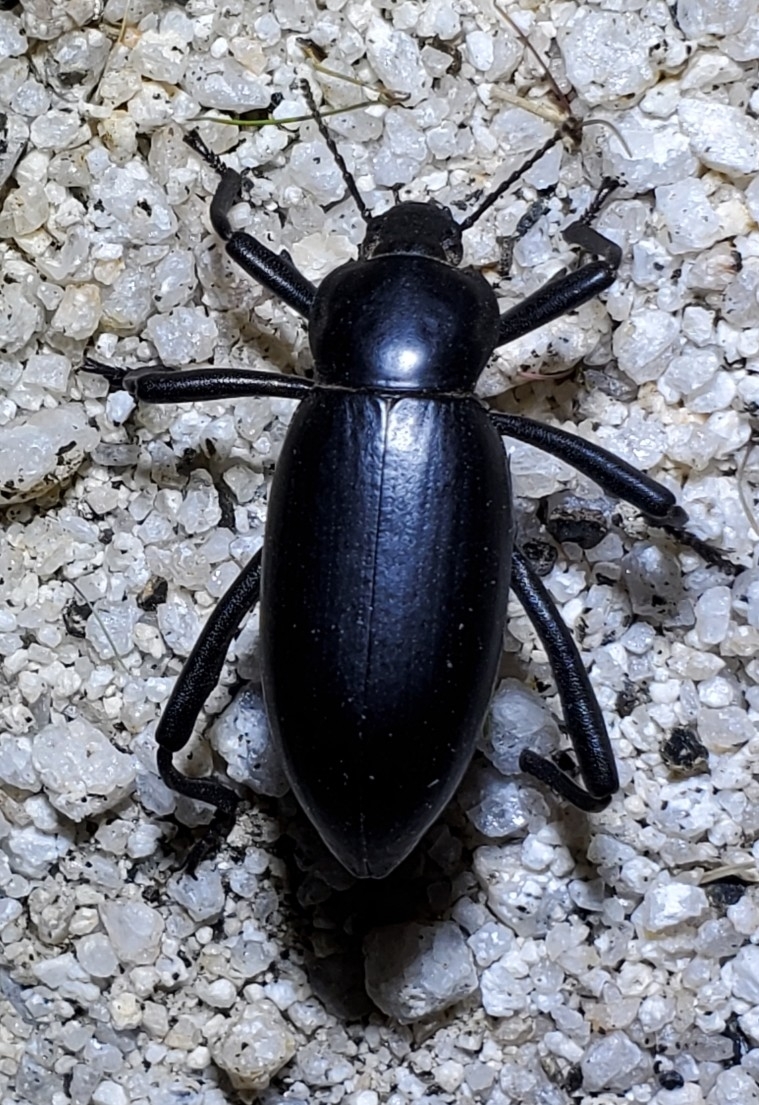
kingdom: Animalia
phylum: Arthropoda
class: Insecta
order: Coleoptera
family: Tenebrionidae
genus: Eleodes
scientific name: Eleodes armata
